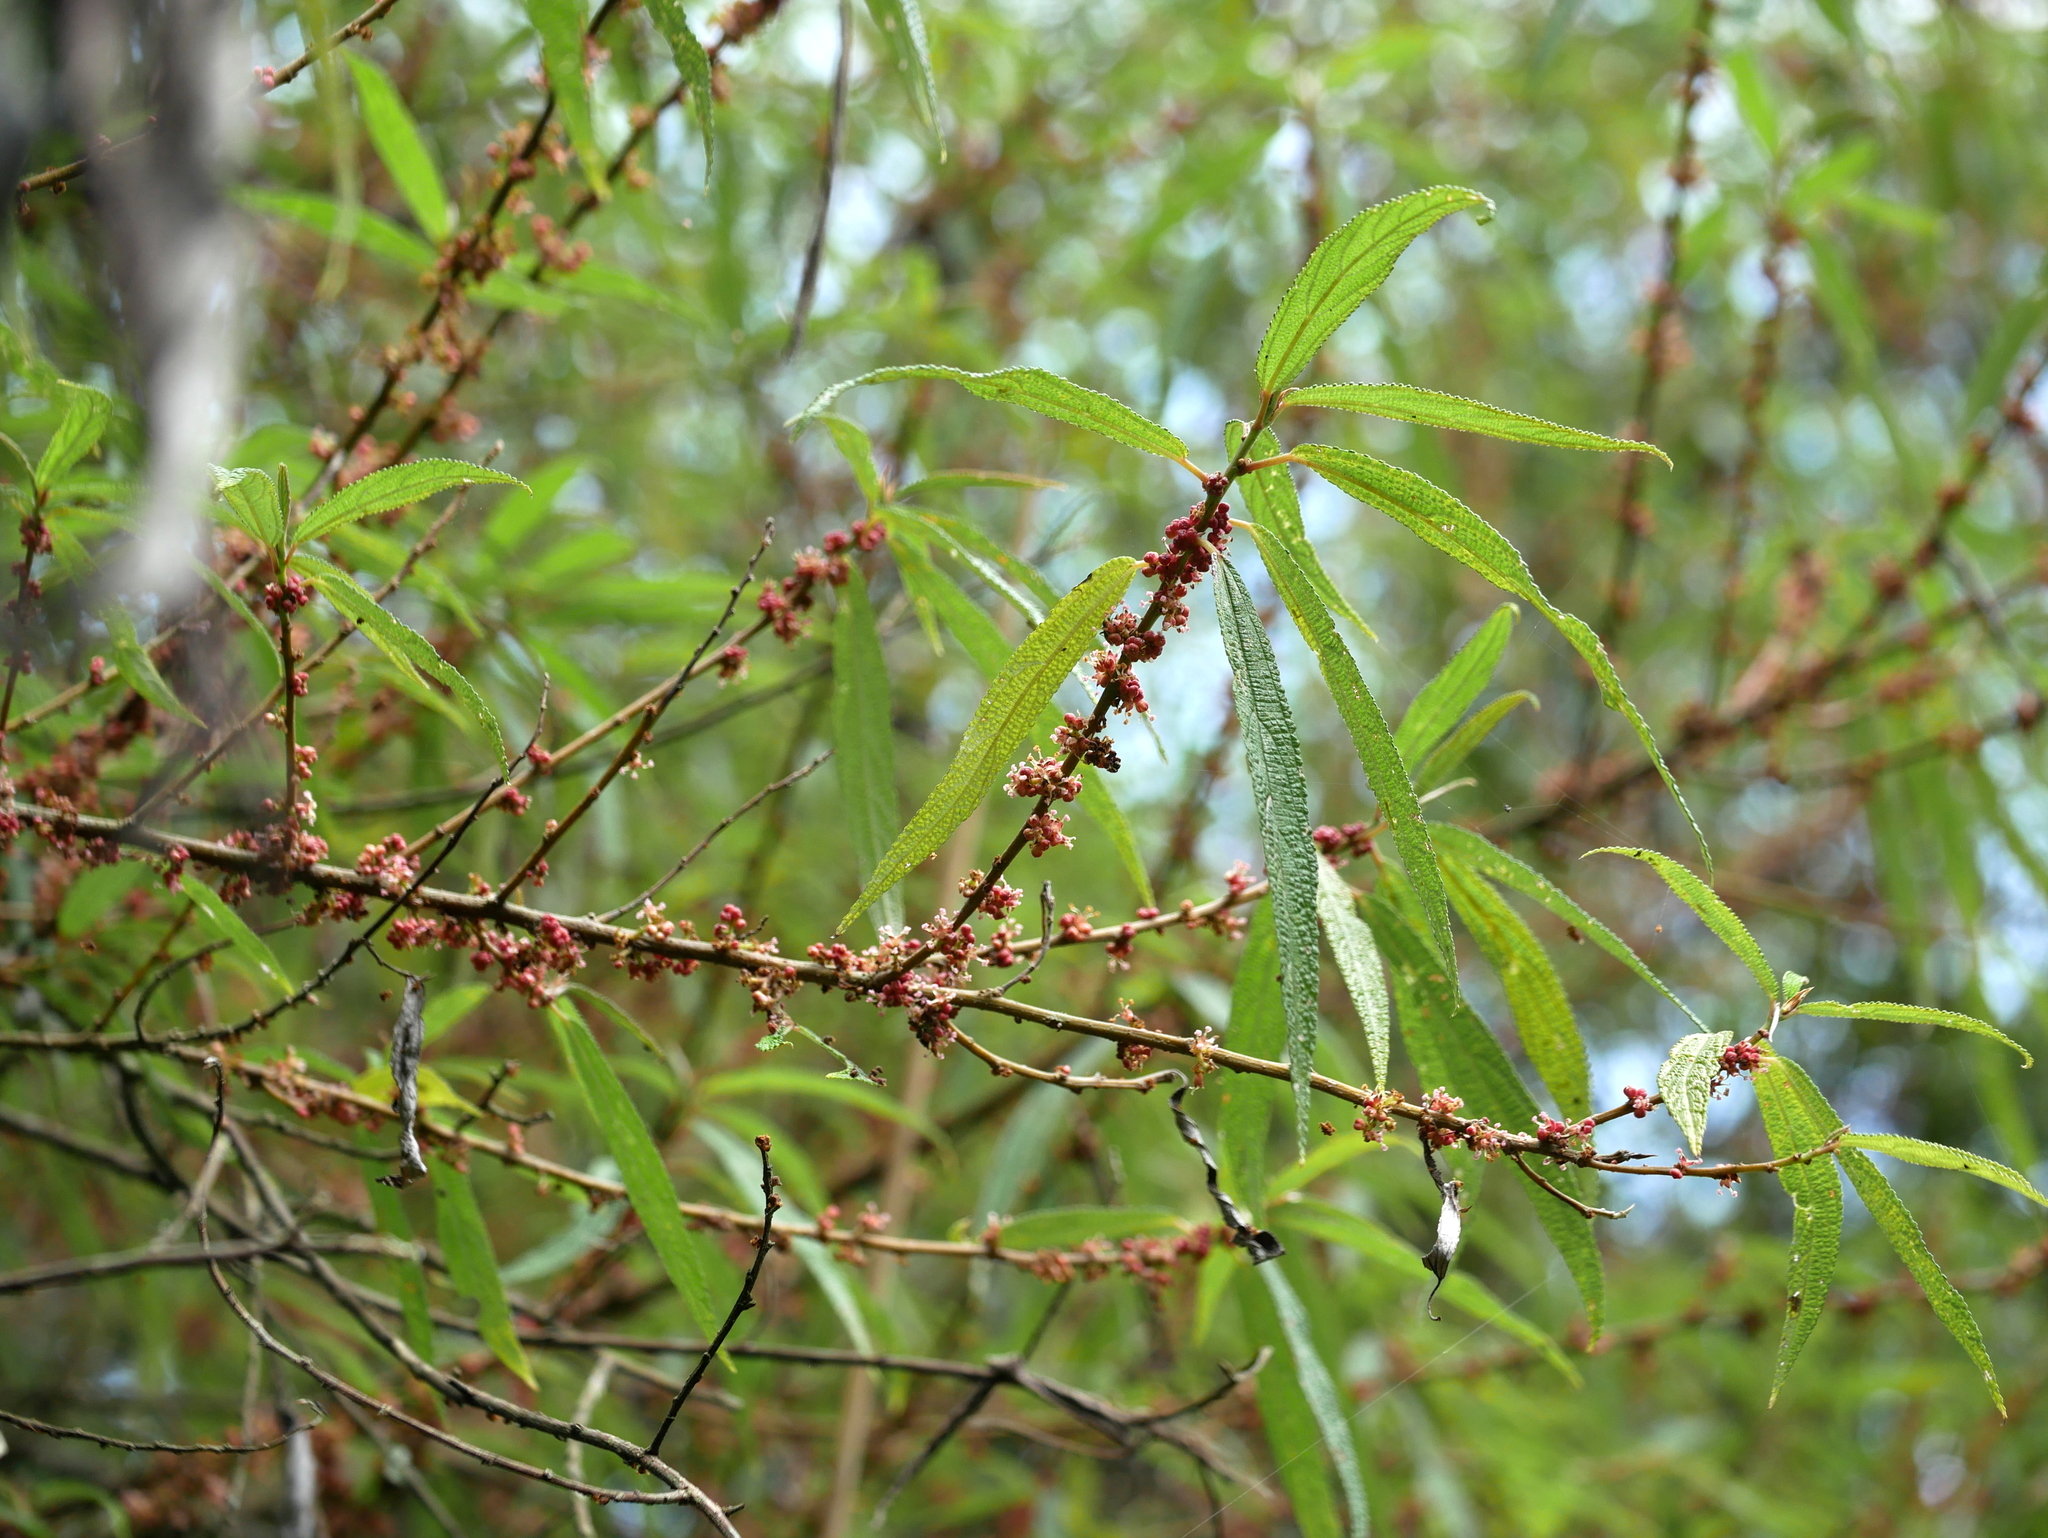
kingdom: Plantae
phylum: Tracheophyta
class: Magnoliopsida
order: Rosales
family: Urticaceae
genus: Debregeasia
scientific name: Debregeasia orientalis
